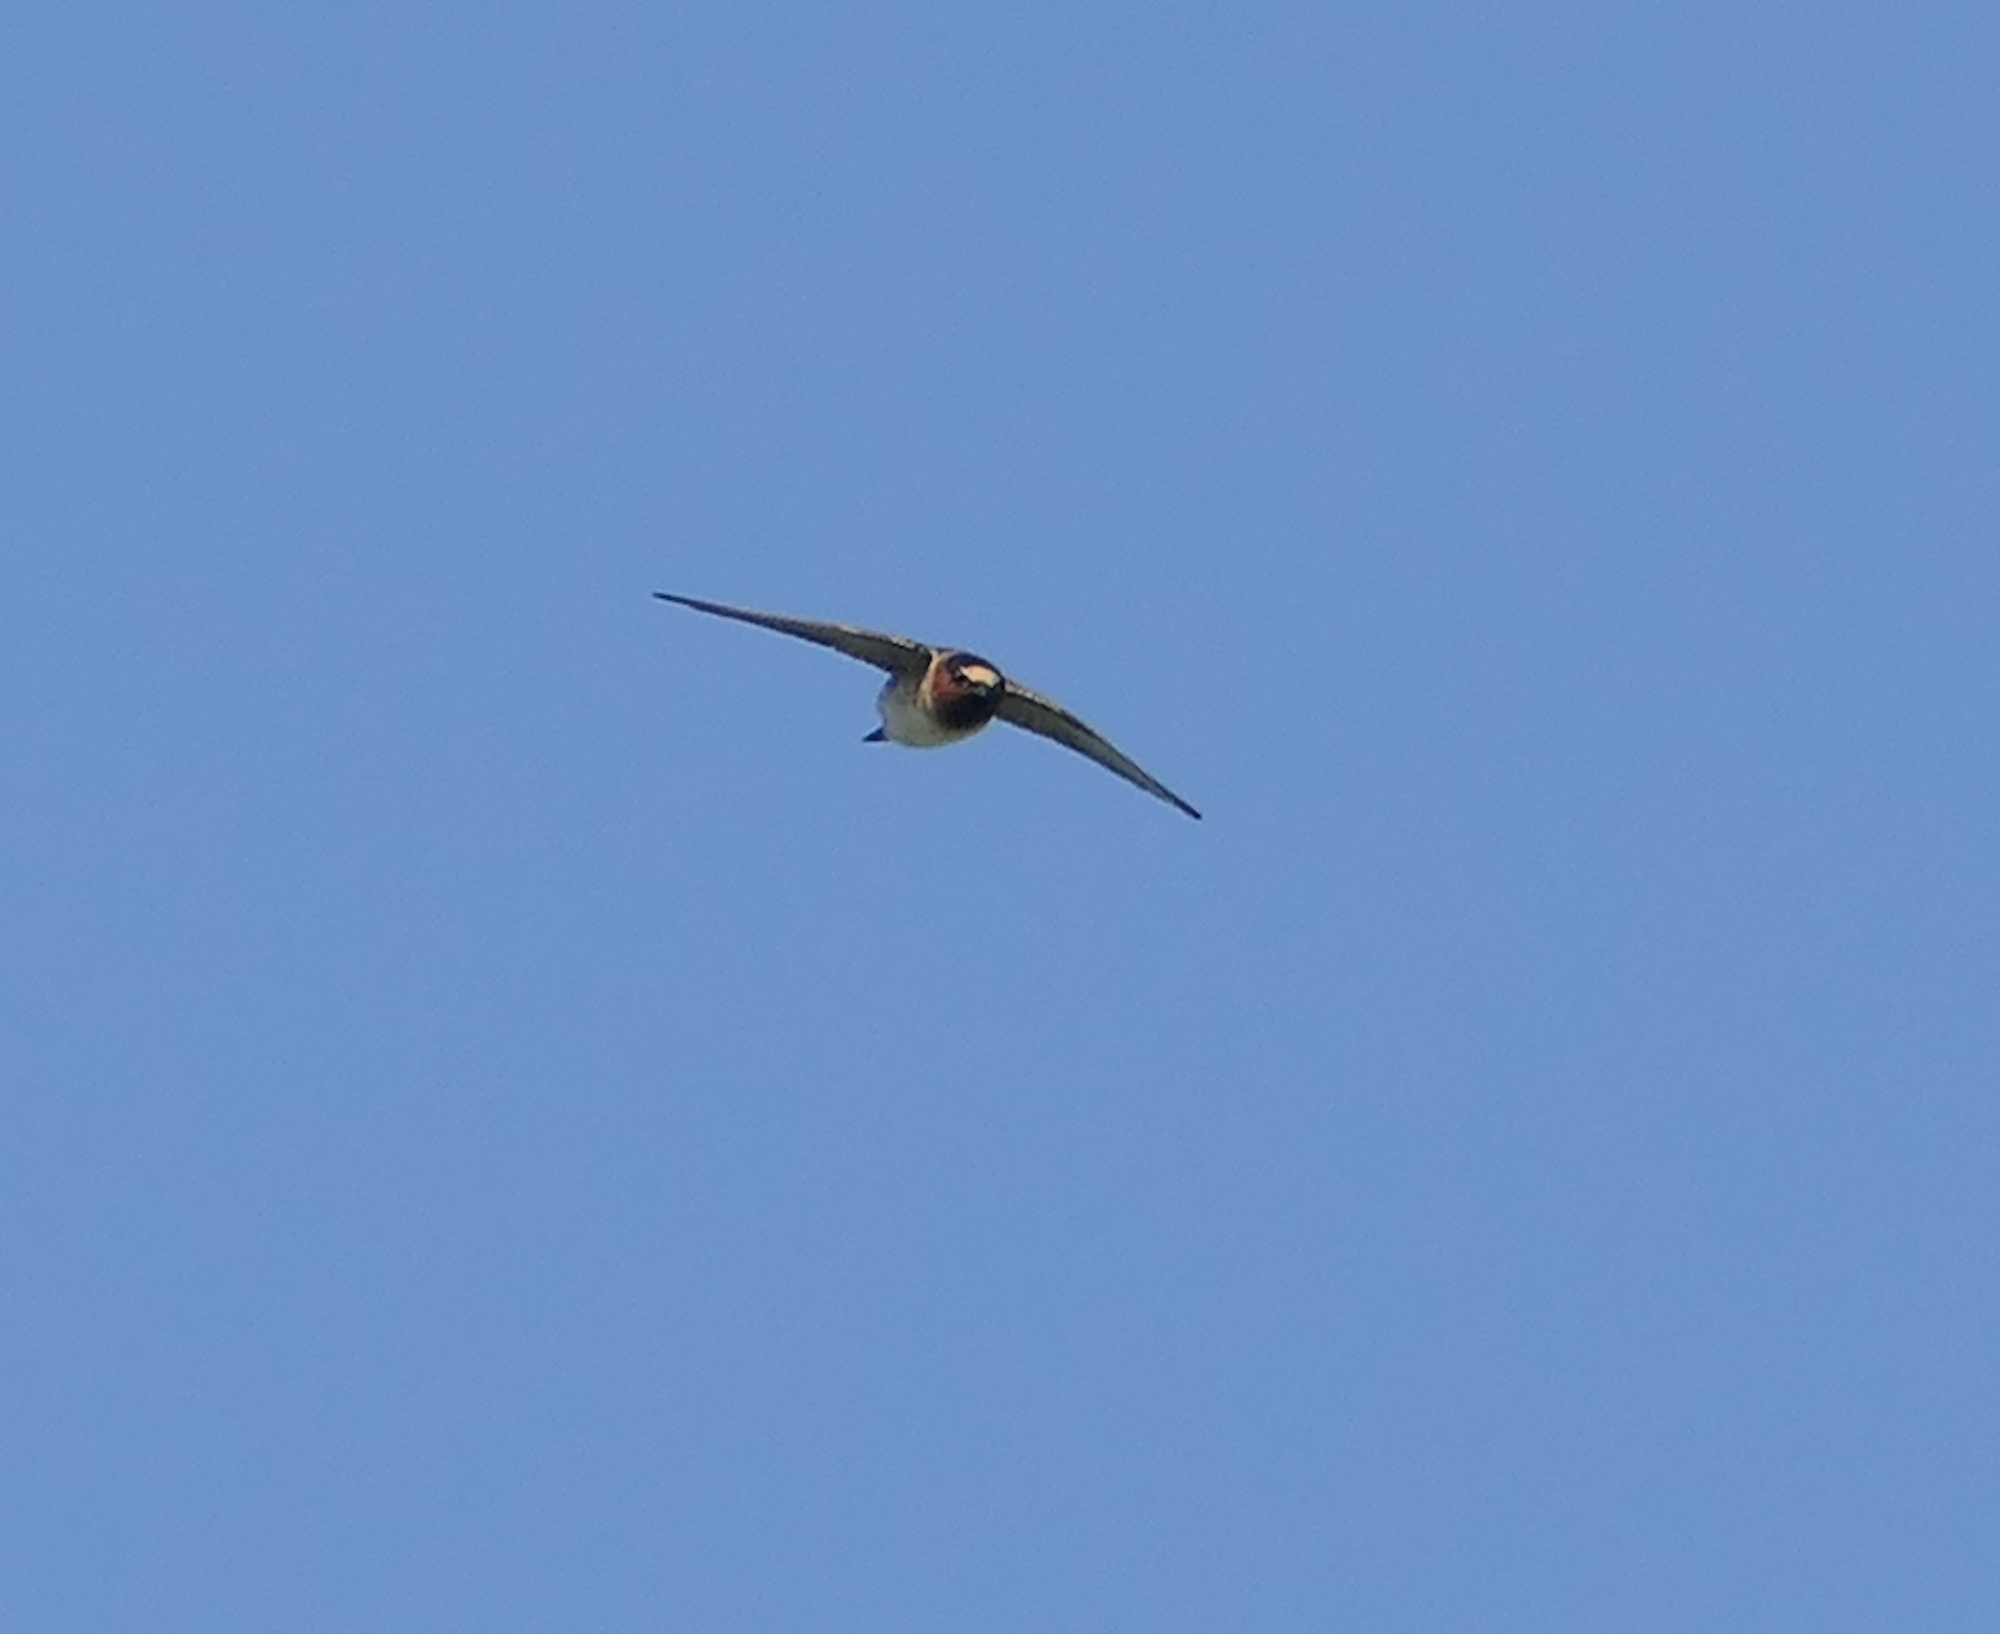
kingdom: Animalia
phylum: Chordata
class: Aves
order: Passeriformes
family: Hirundinidae
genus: Petrochelidon
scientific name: Petrochelidon pyrrhonota
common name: American cliff swallow
